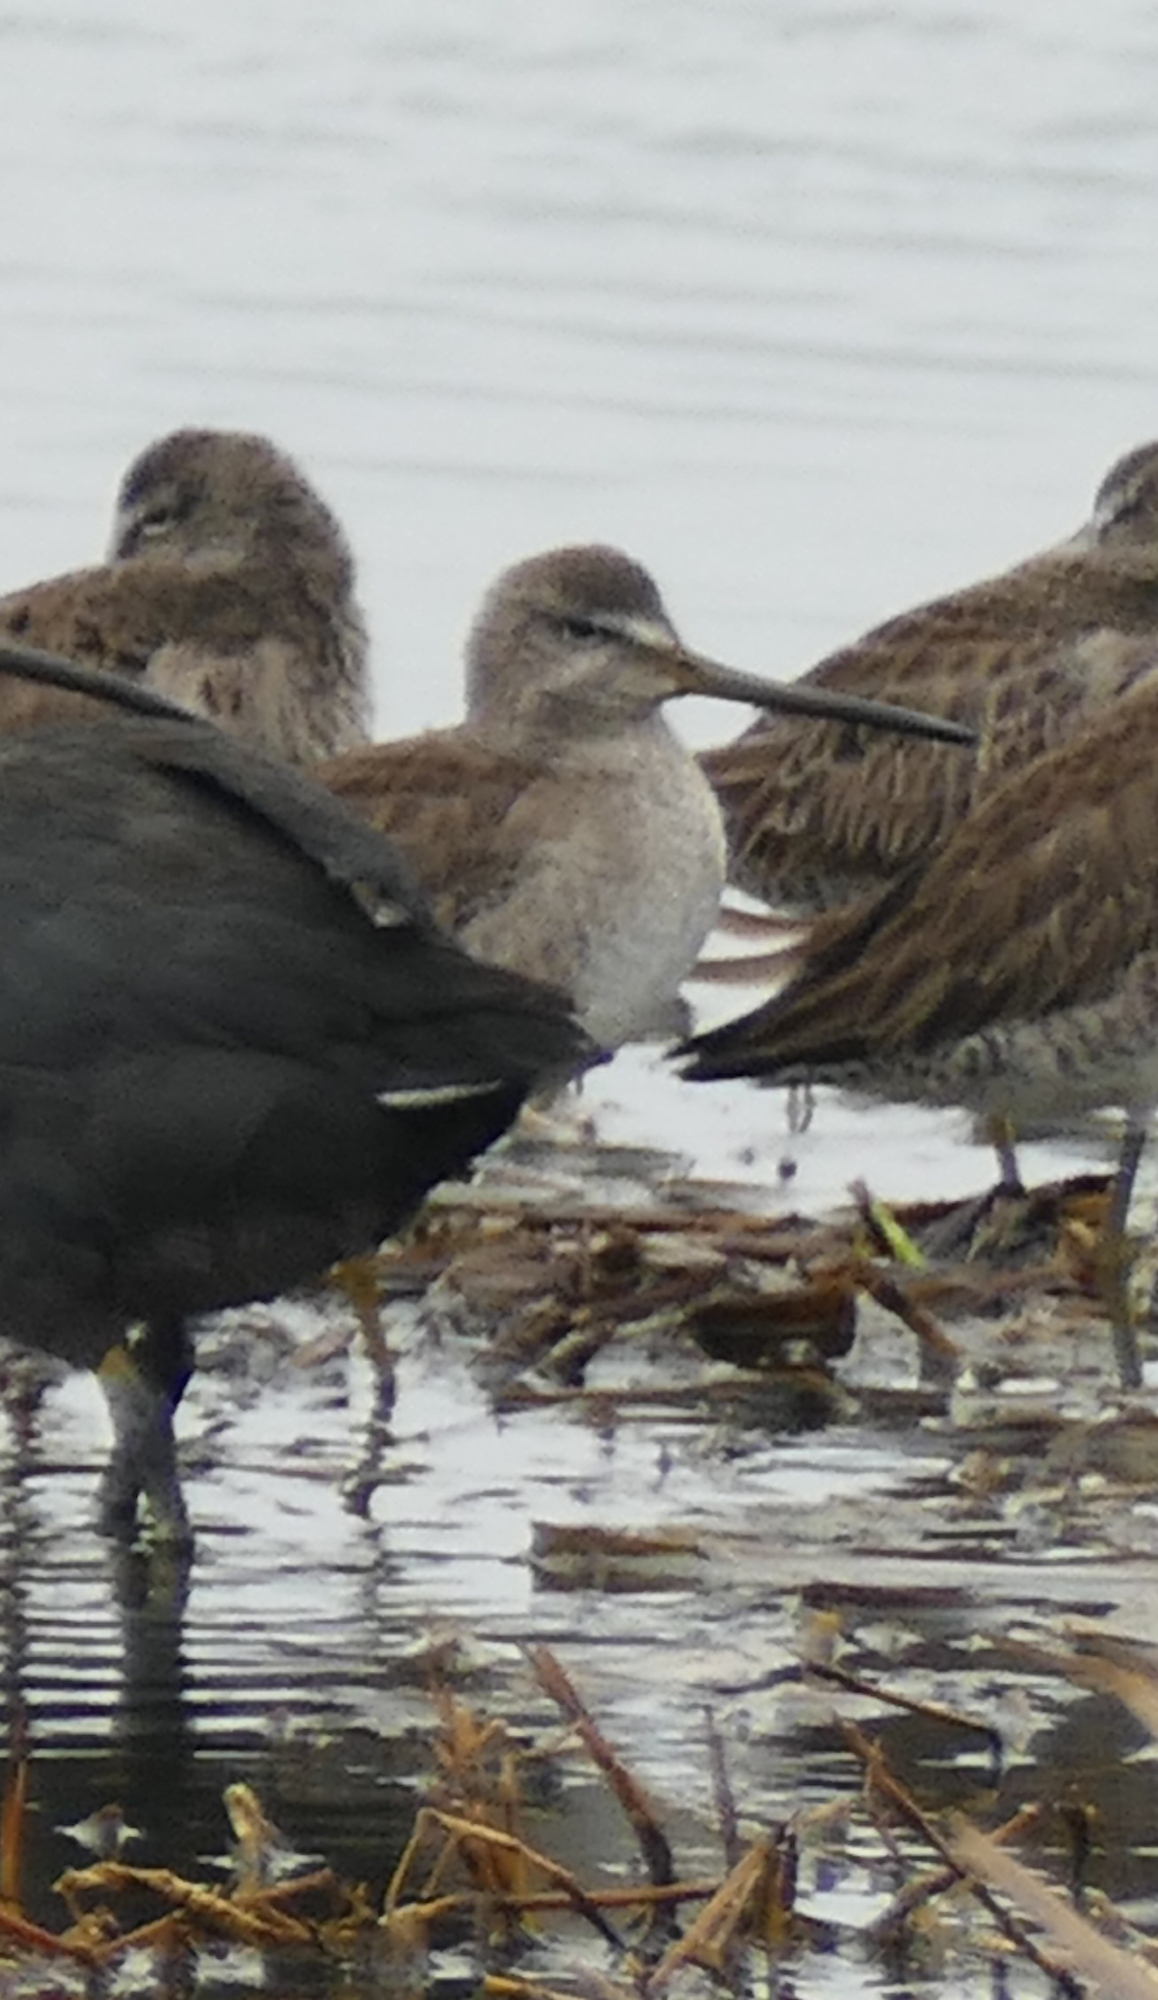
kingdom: Animalia
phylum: Chordata
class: Aves
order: Charadriiformes
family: Scolopacidae
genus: Limnodromus
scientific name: Limnodromus scolopaceus
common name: Long-billed dowitcher
